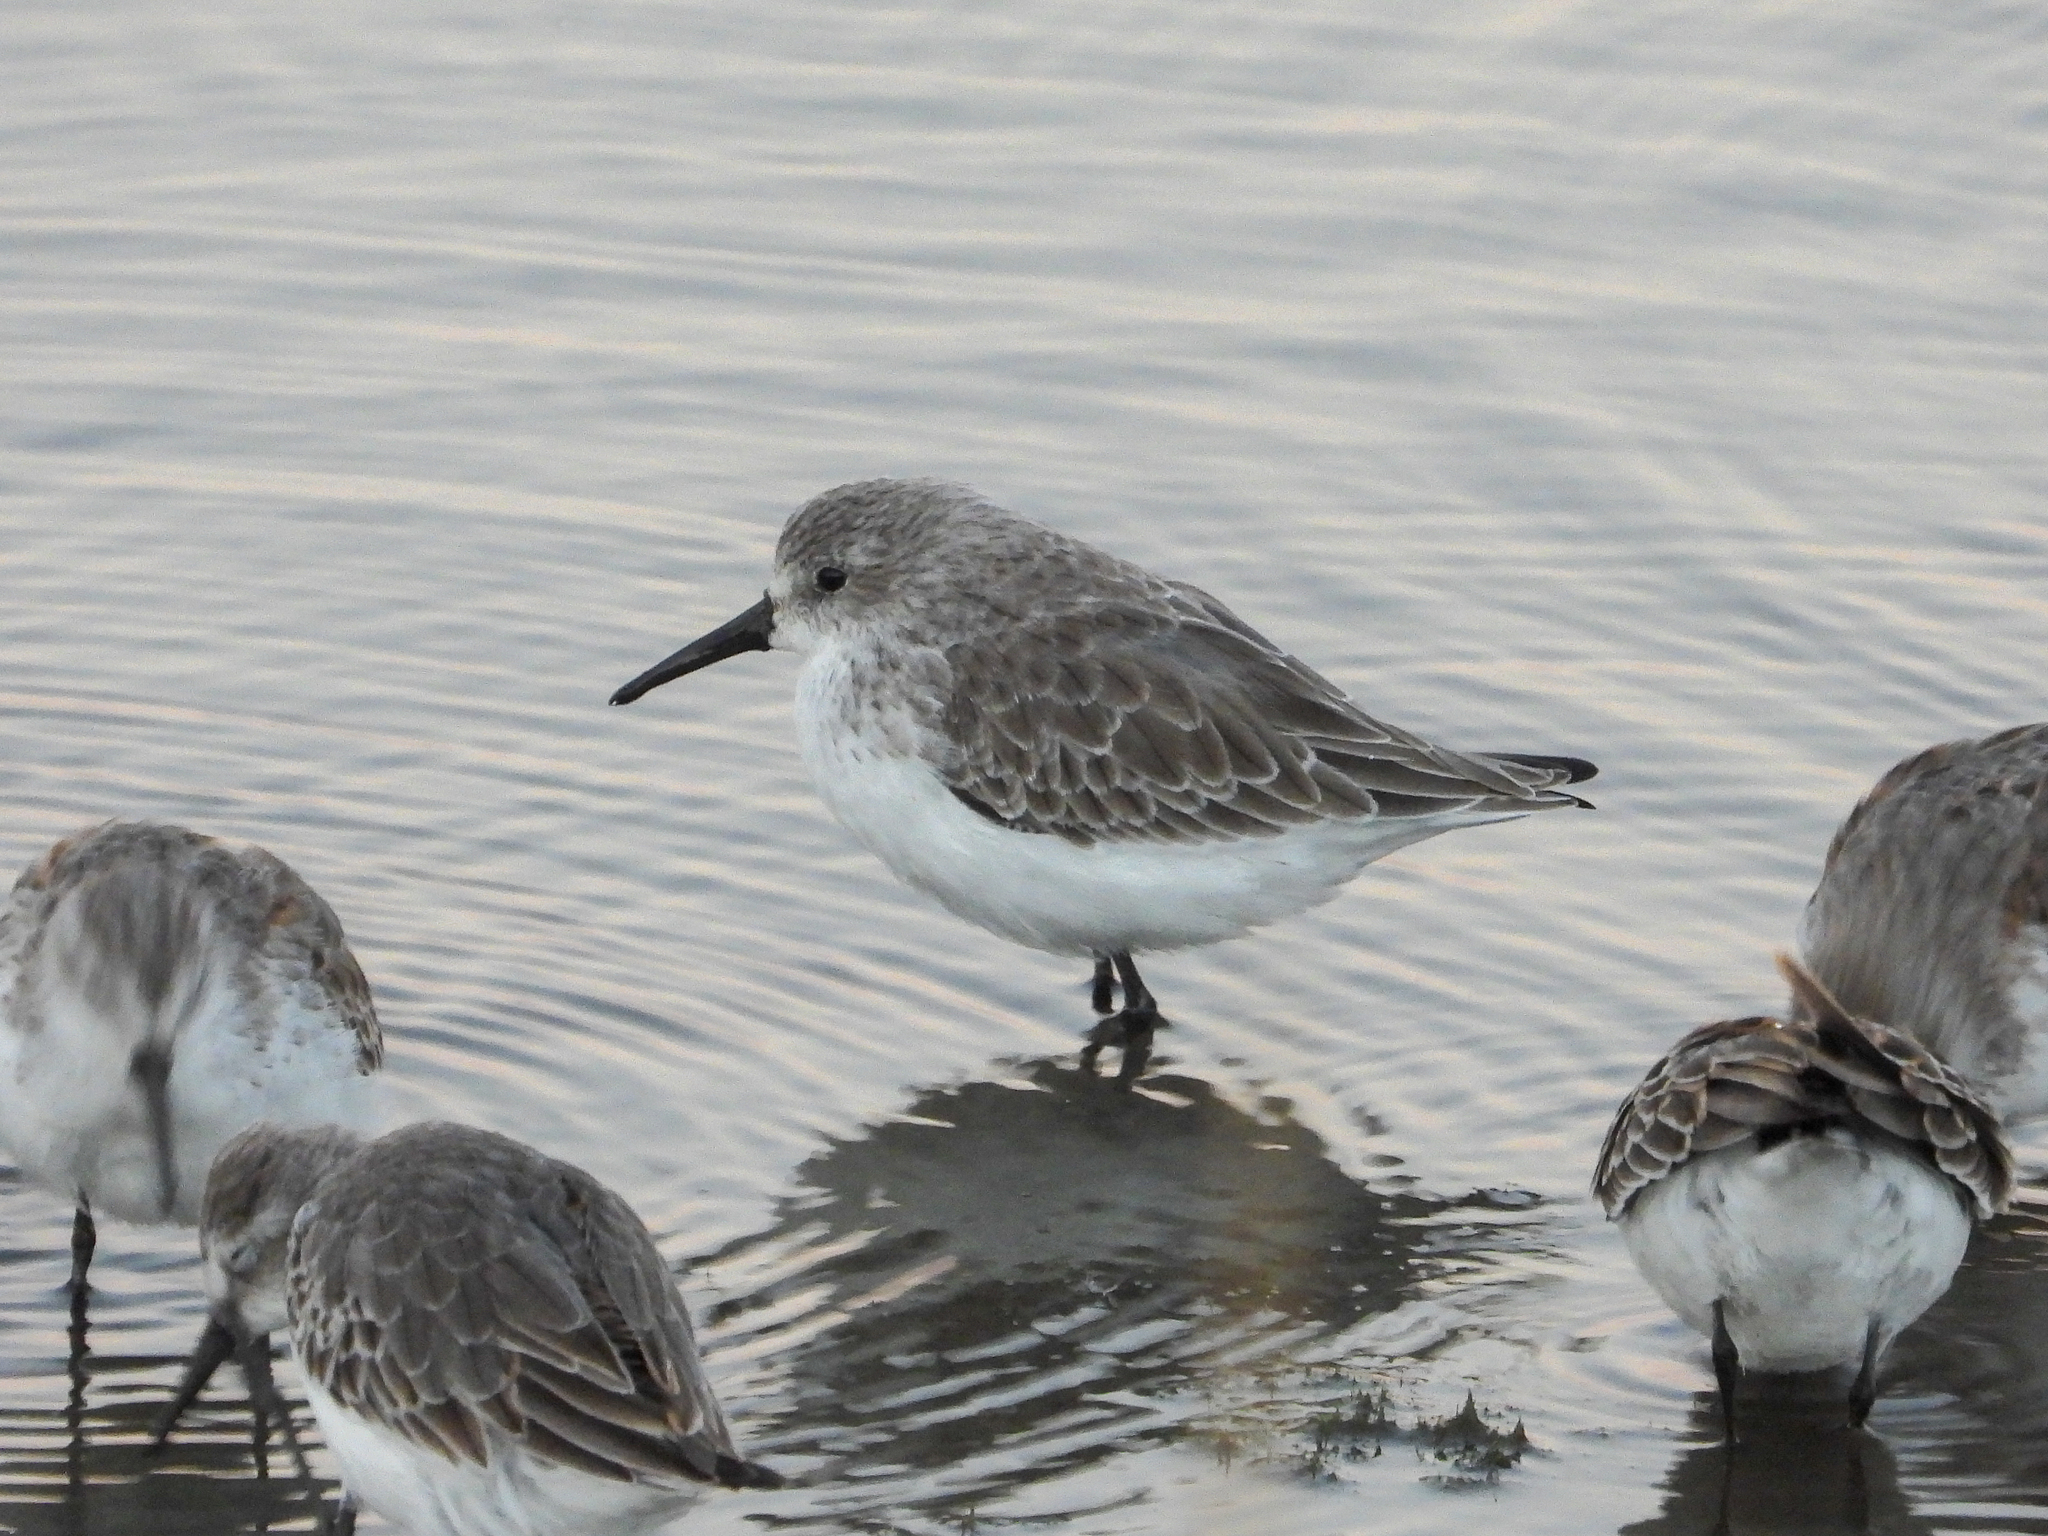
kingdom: Animalia
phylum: Chordata
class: Aves
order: Charadriiformes
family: Scolopacidae
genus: Calidris
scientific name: Calidris mauri
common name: Western sandpiper
